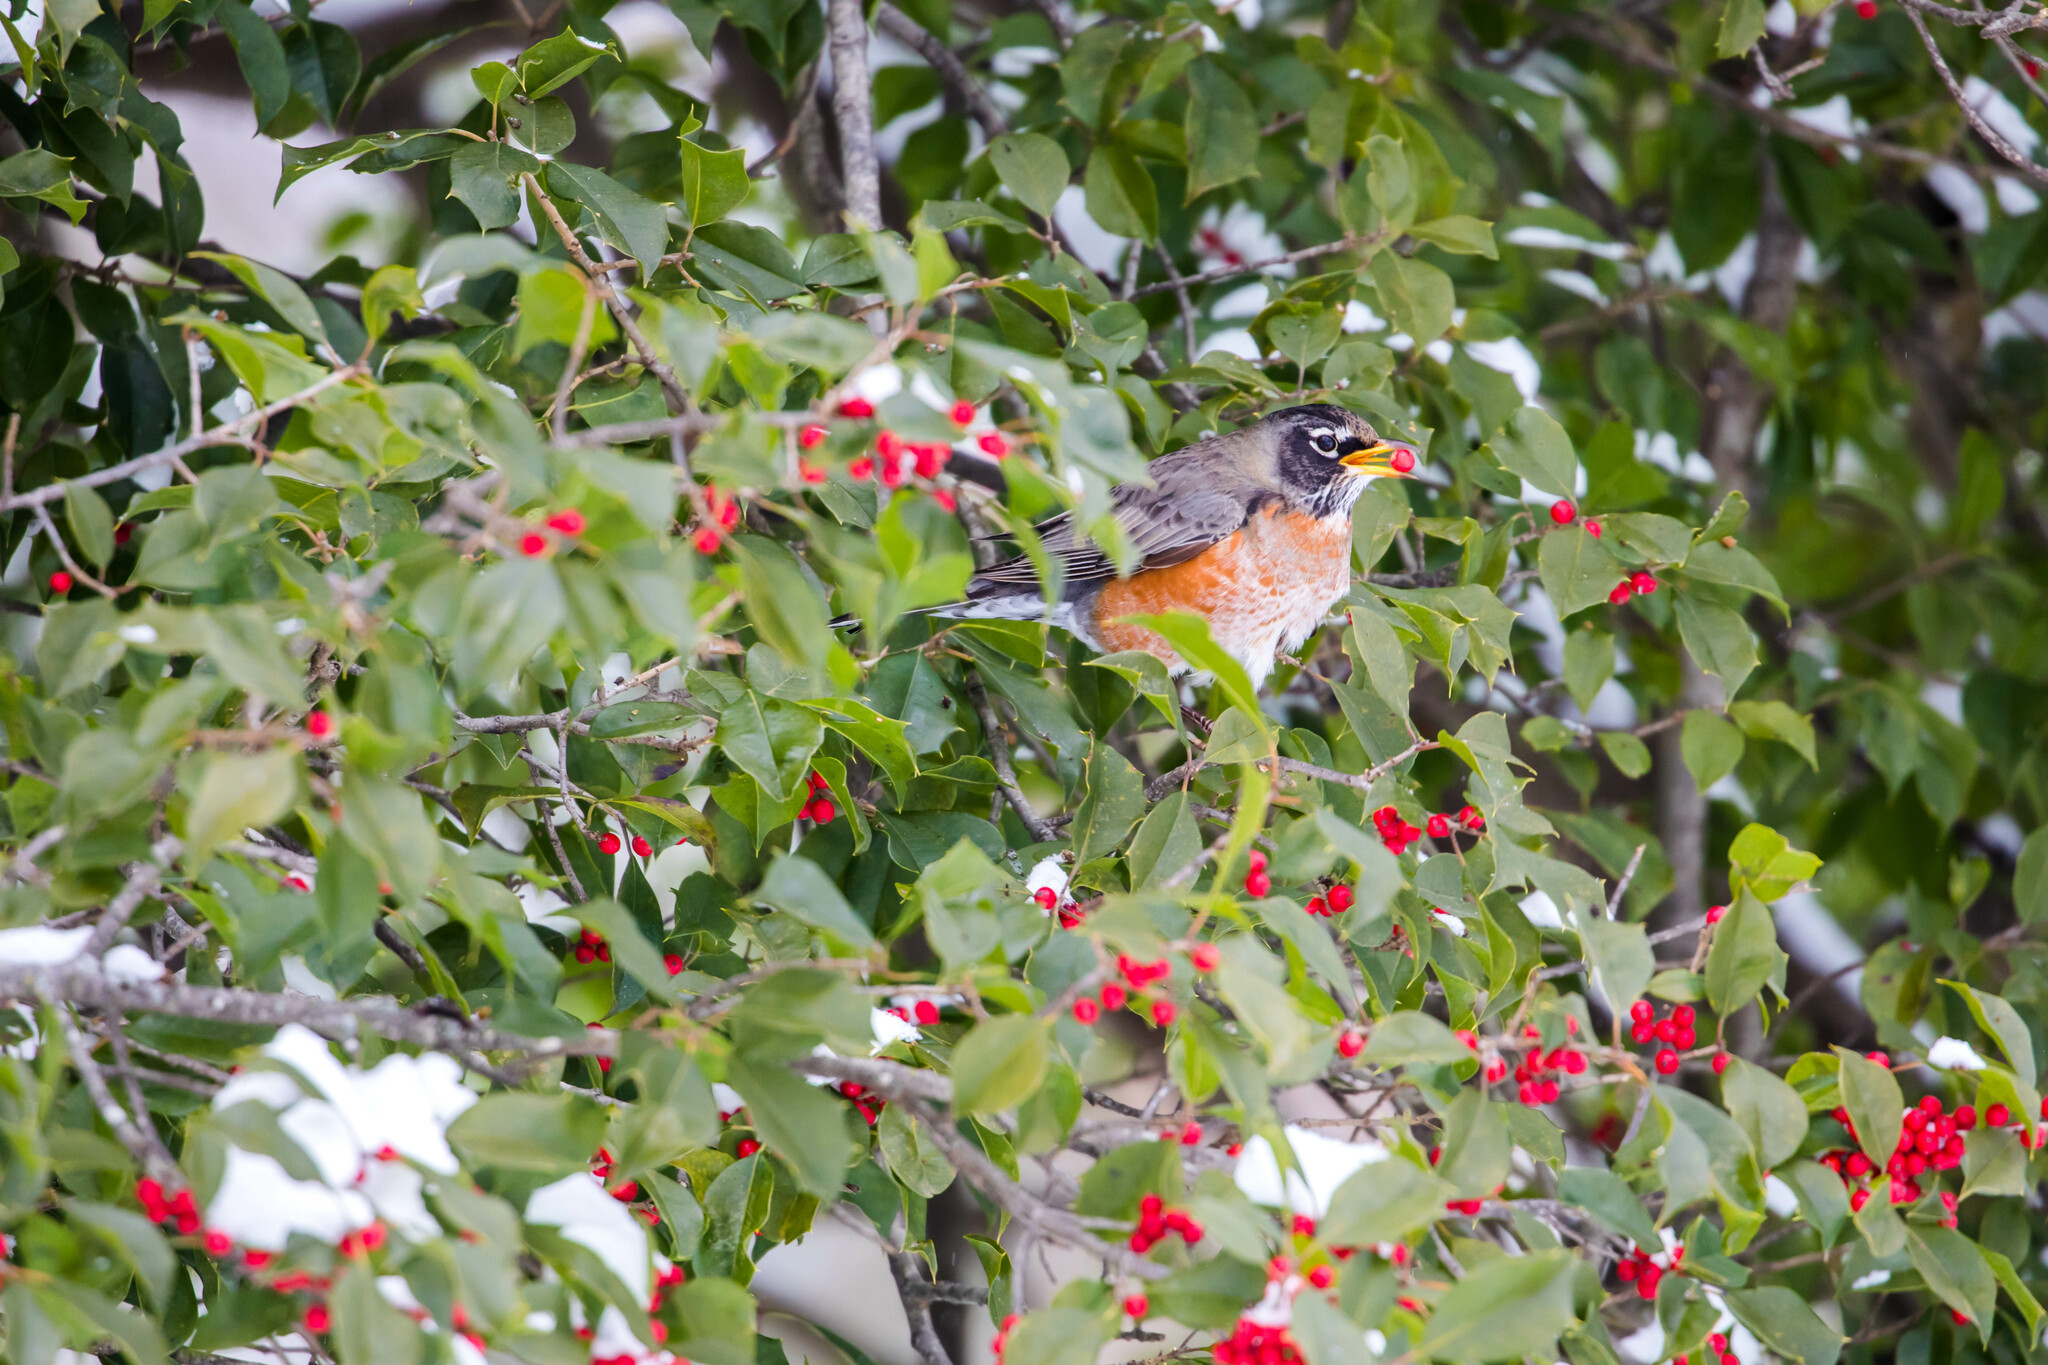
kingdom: Animalia
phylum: Chordata
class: Aves
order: Passeriformes
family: Turdidae
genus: Turdus
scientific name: Turdus migratorius
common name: American robin
